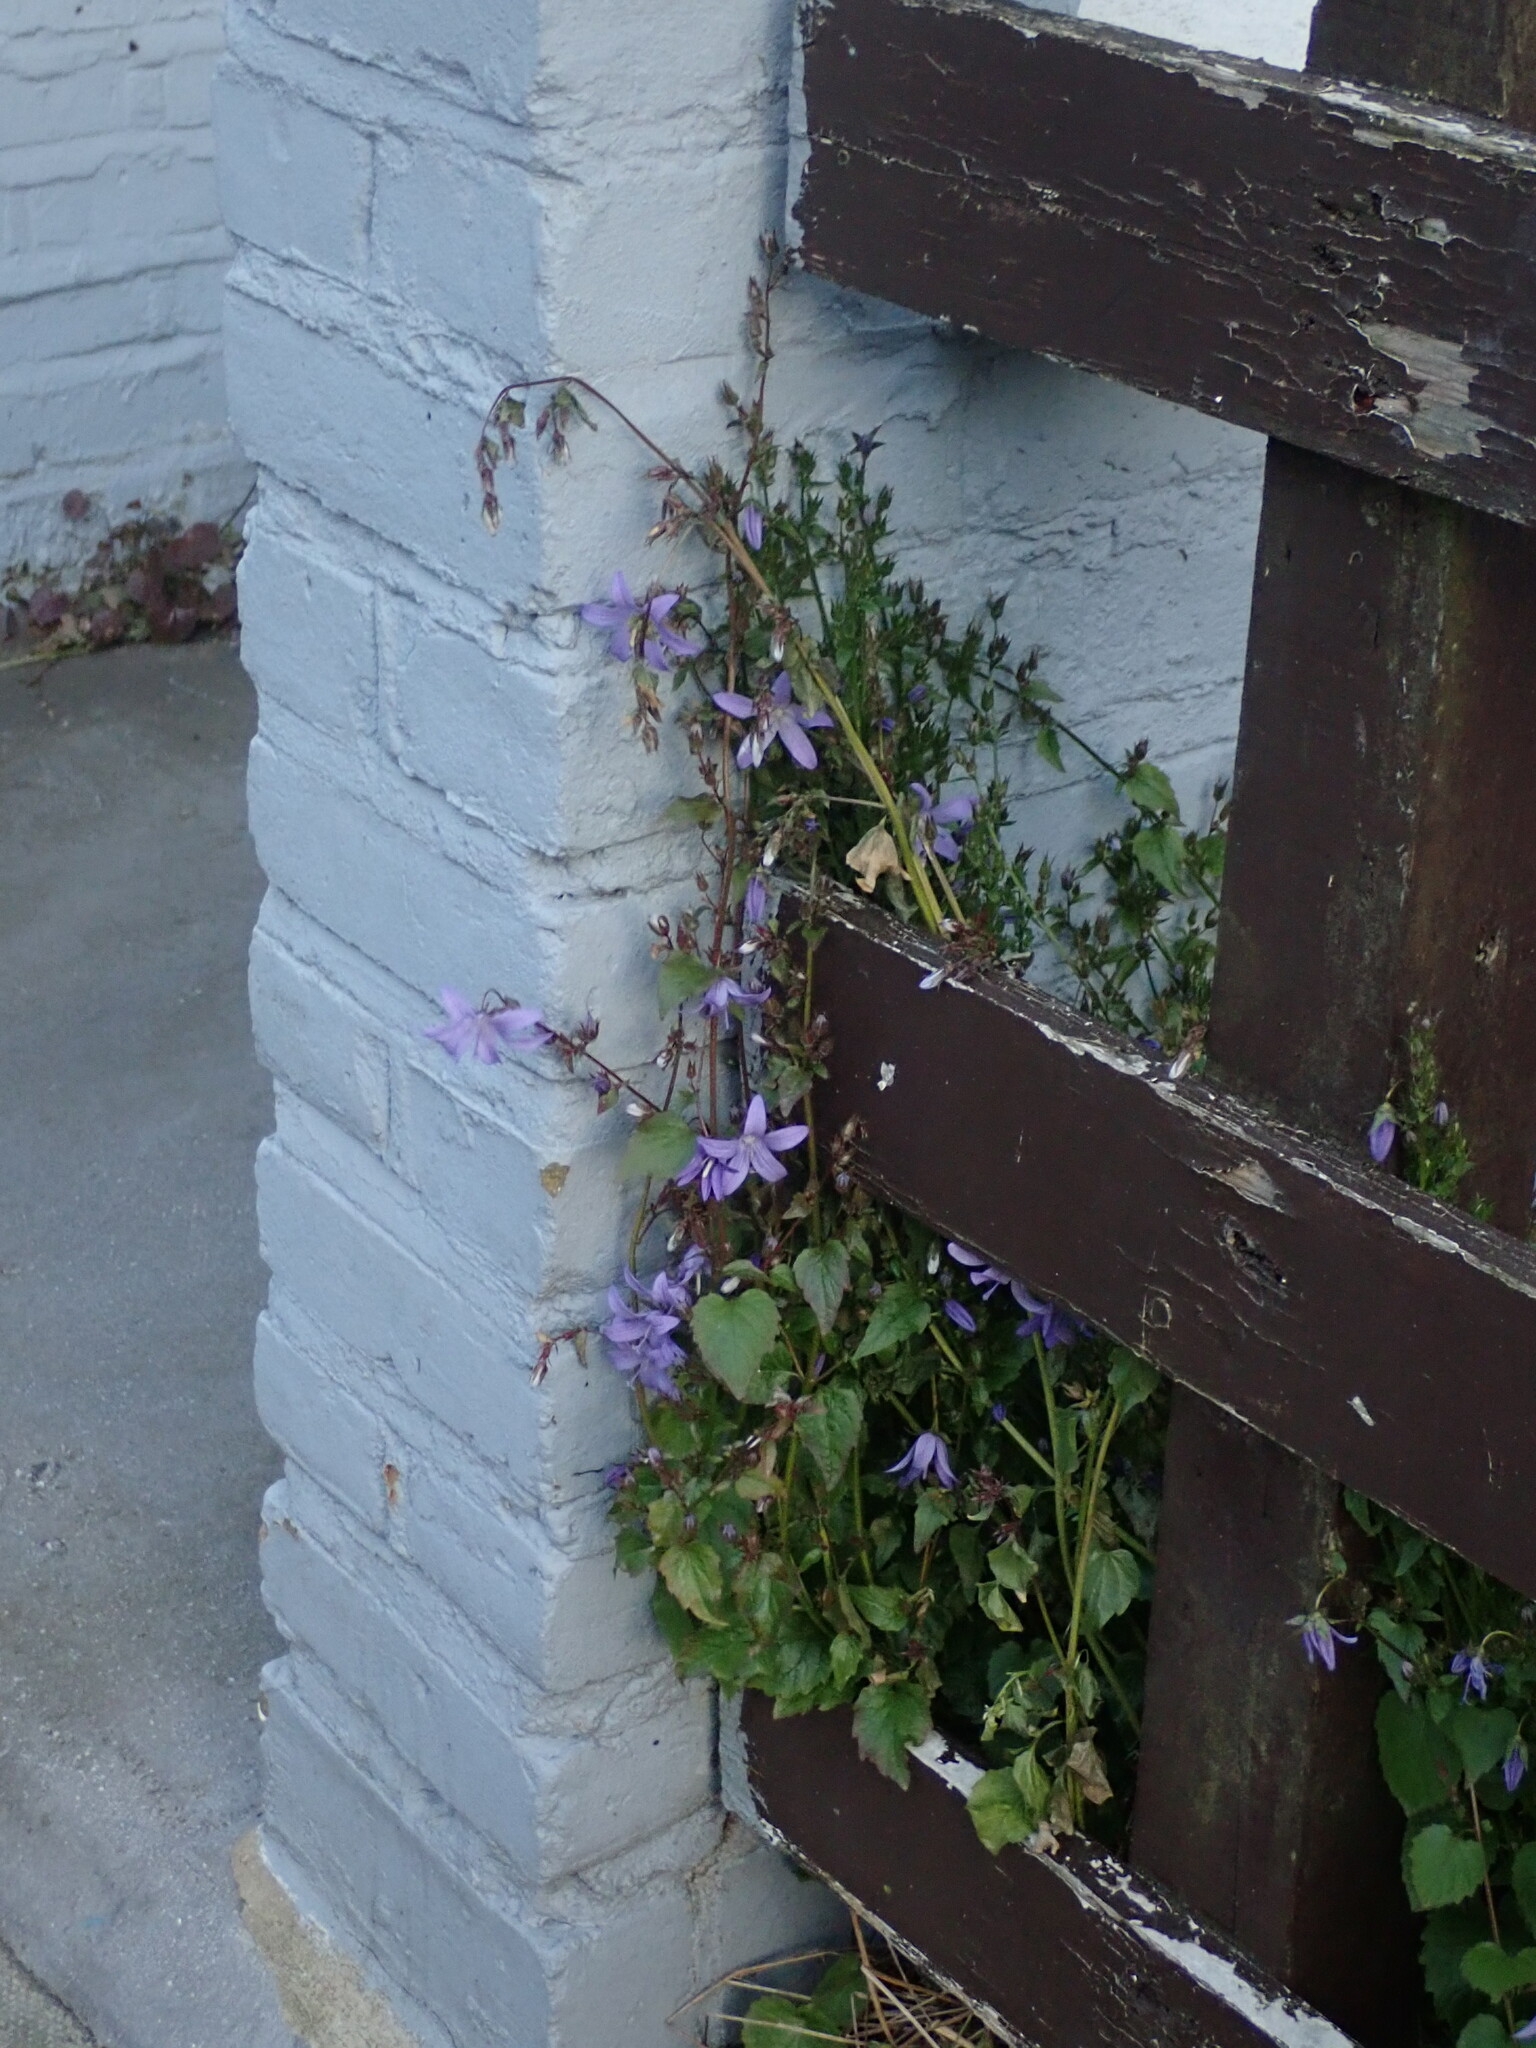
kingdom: Plantae
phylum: Tracheophyta
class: Magnoliopsida
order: Asterales
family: Campanulaceae
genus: Campanula
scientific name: Campanula poscharskyana
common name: Trailing bellflower
